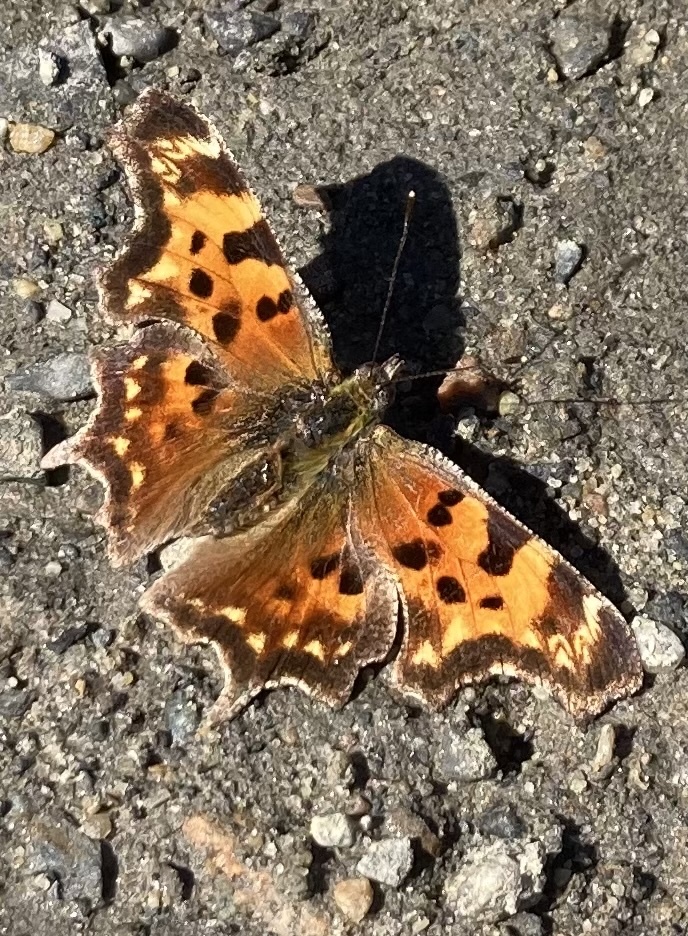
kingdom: Animalia
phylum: Arthropoda
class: Insecta
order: Lepidoptera
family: Nymphalidae
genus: Polygonia
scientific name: Polygonia faunus
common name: Green comma
